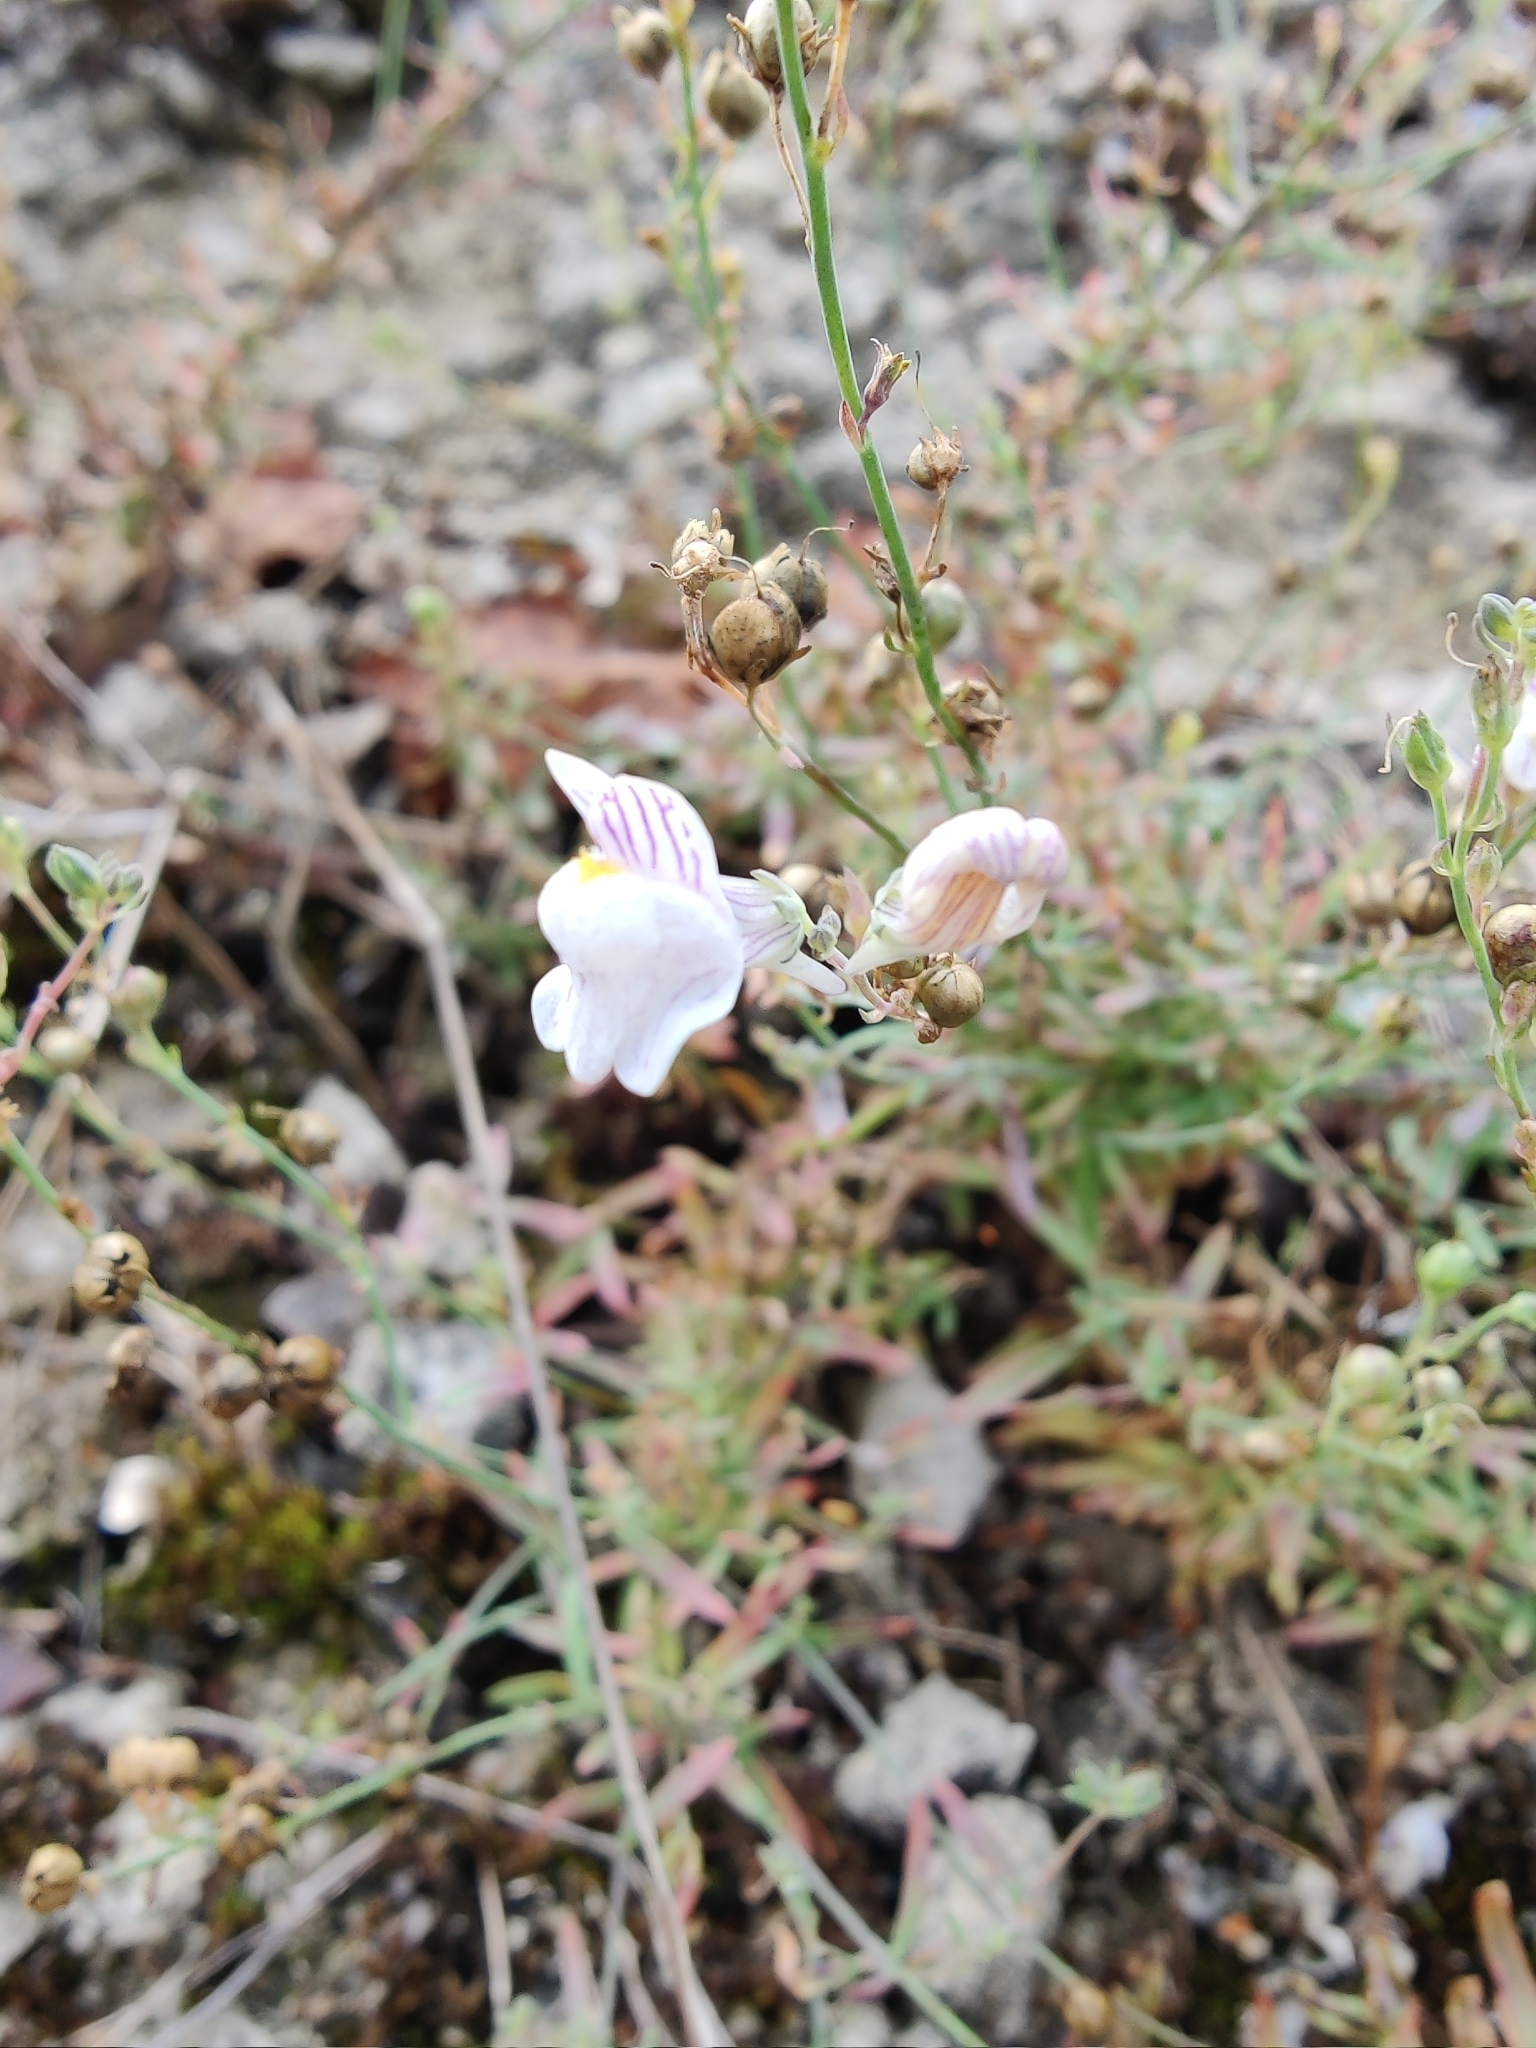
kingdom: Plantae
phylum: Tracheophyta
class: Magnoliopsida
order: Lamiales
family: Plantaginaceae
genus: Linaria
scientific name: Linaria repens
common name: Pale toadflax
